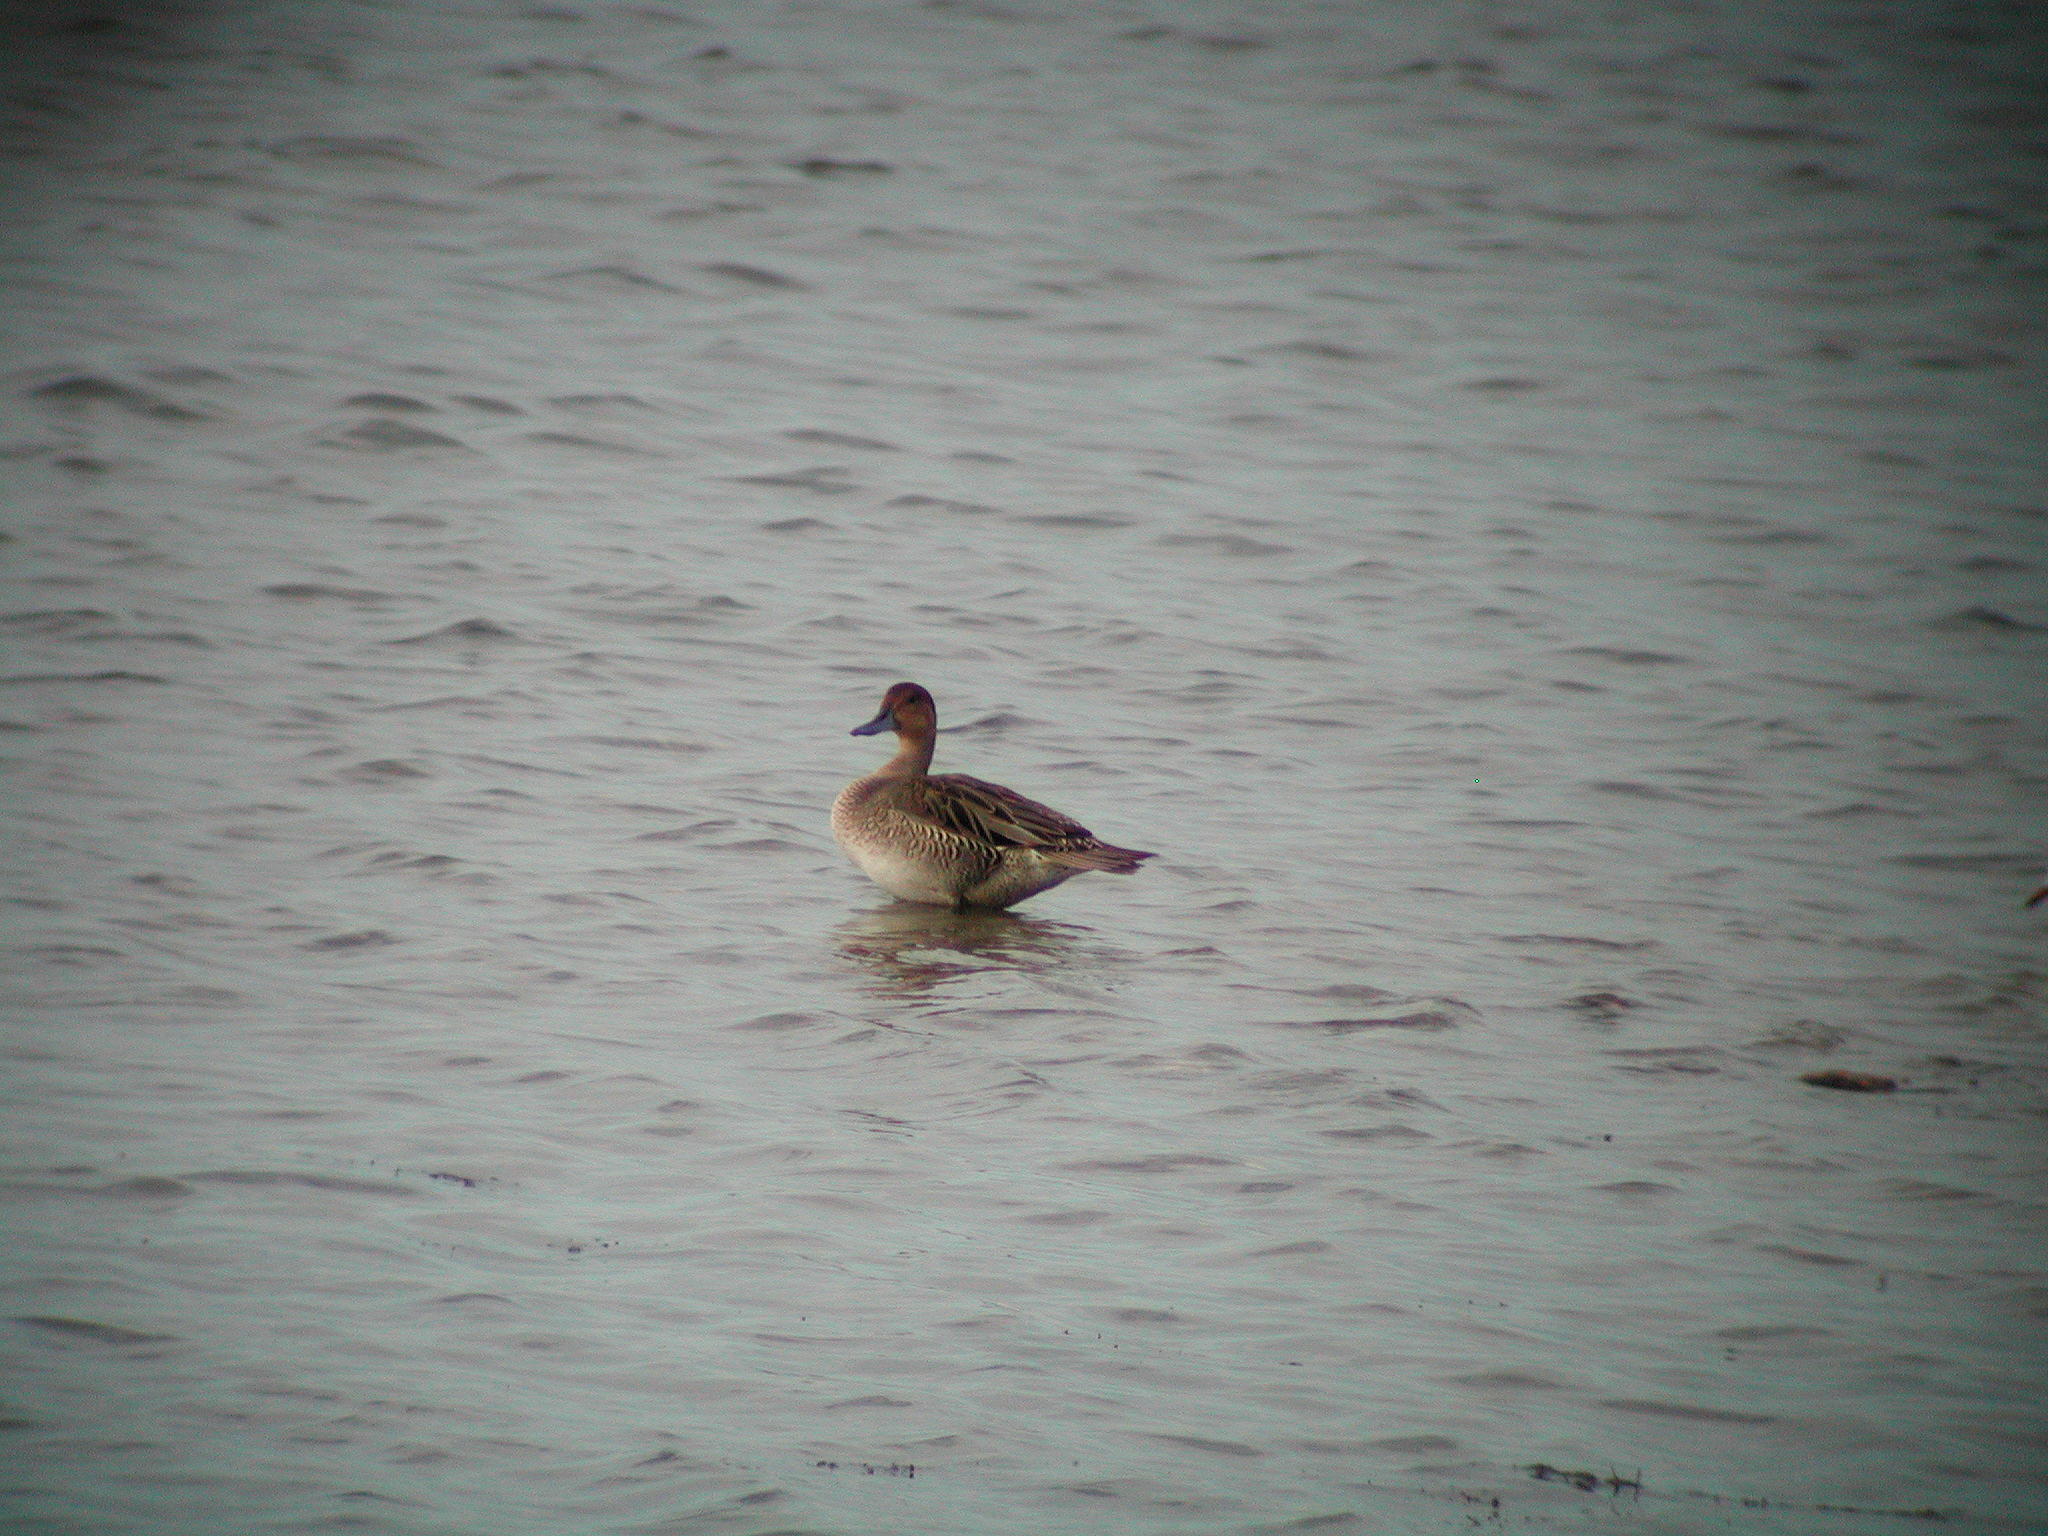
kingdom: Animalia
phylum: Chordata
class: Aves
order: Anseriformes
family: Anatidae
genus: Anas
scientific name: Anas acuta
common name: Northern pintail
